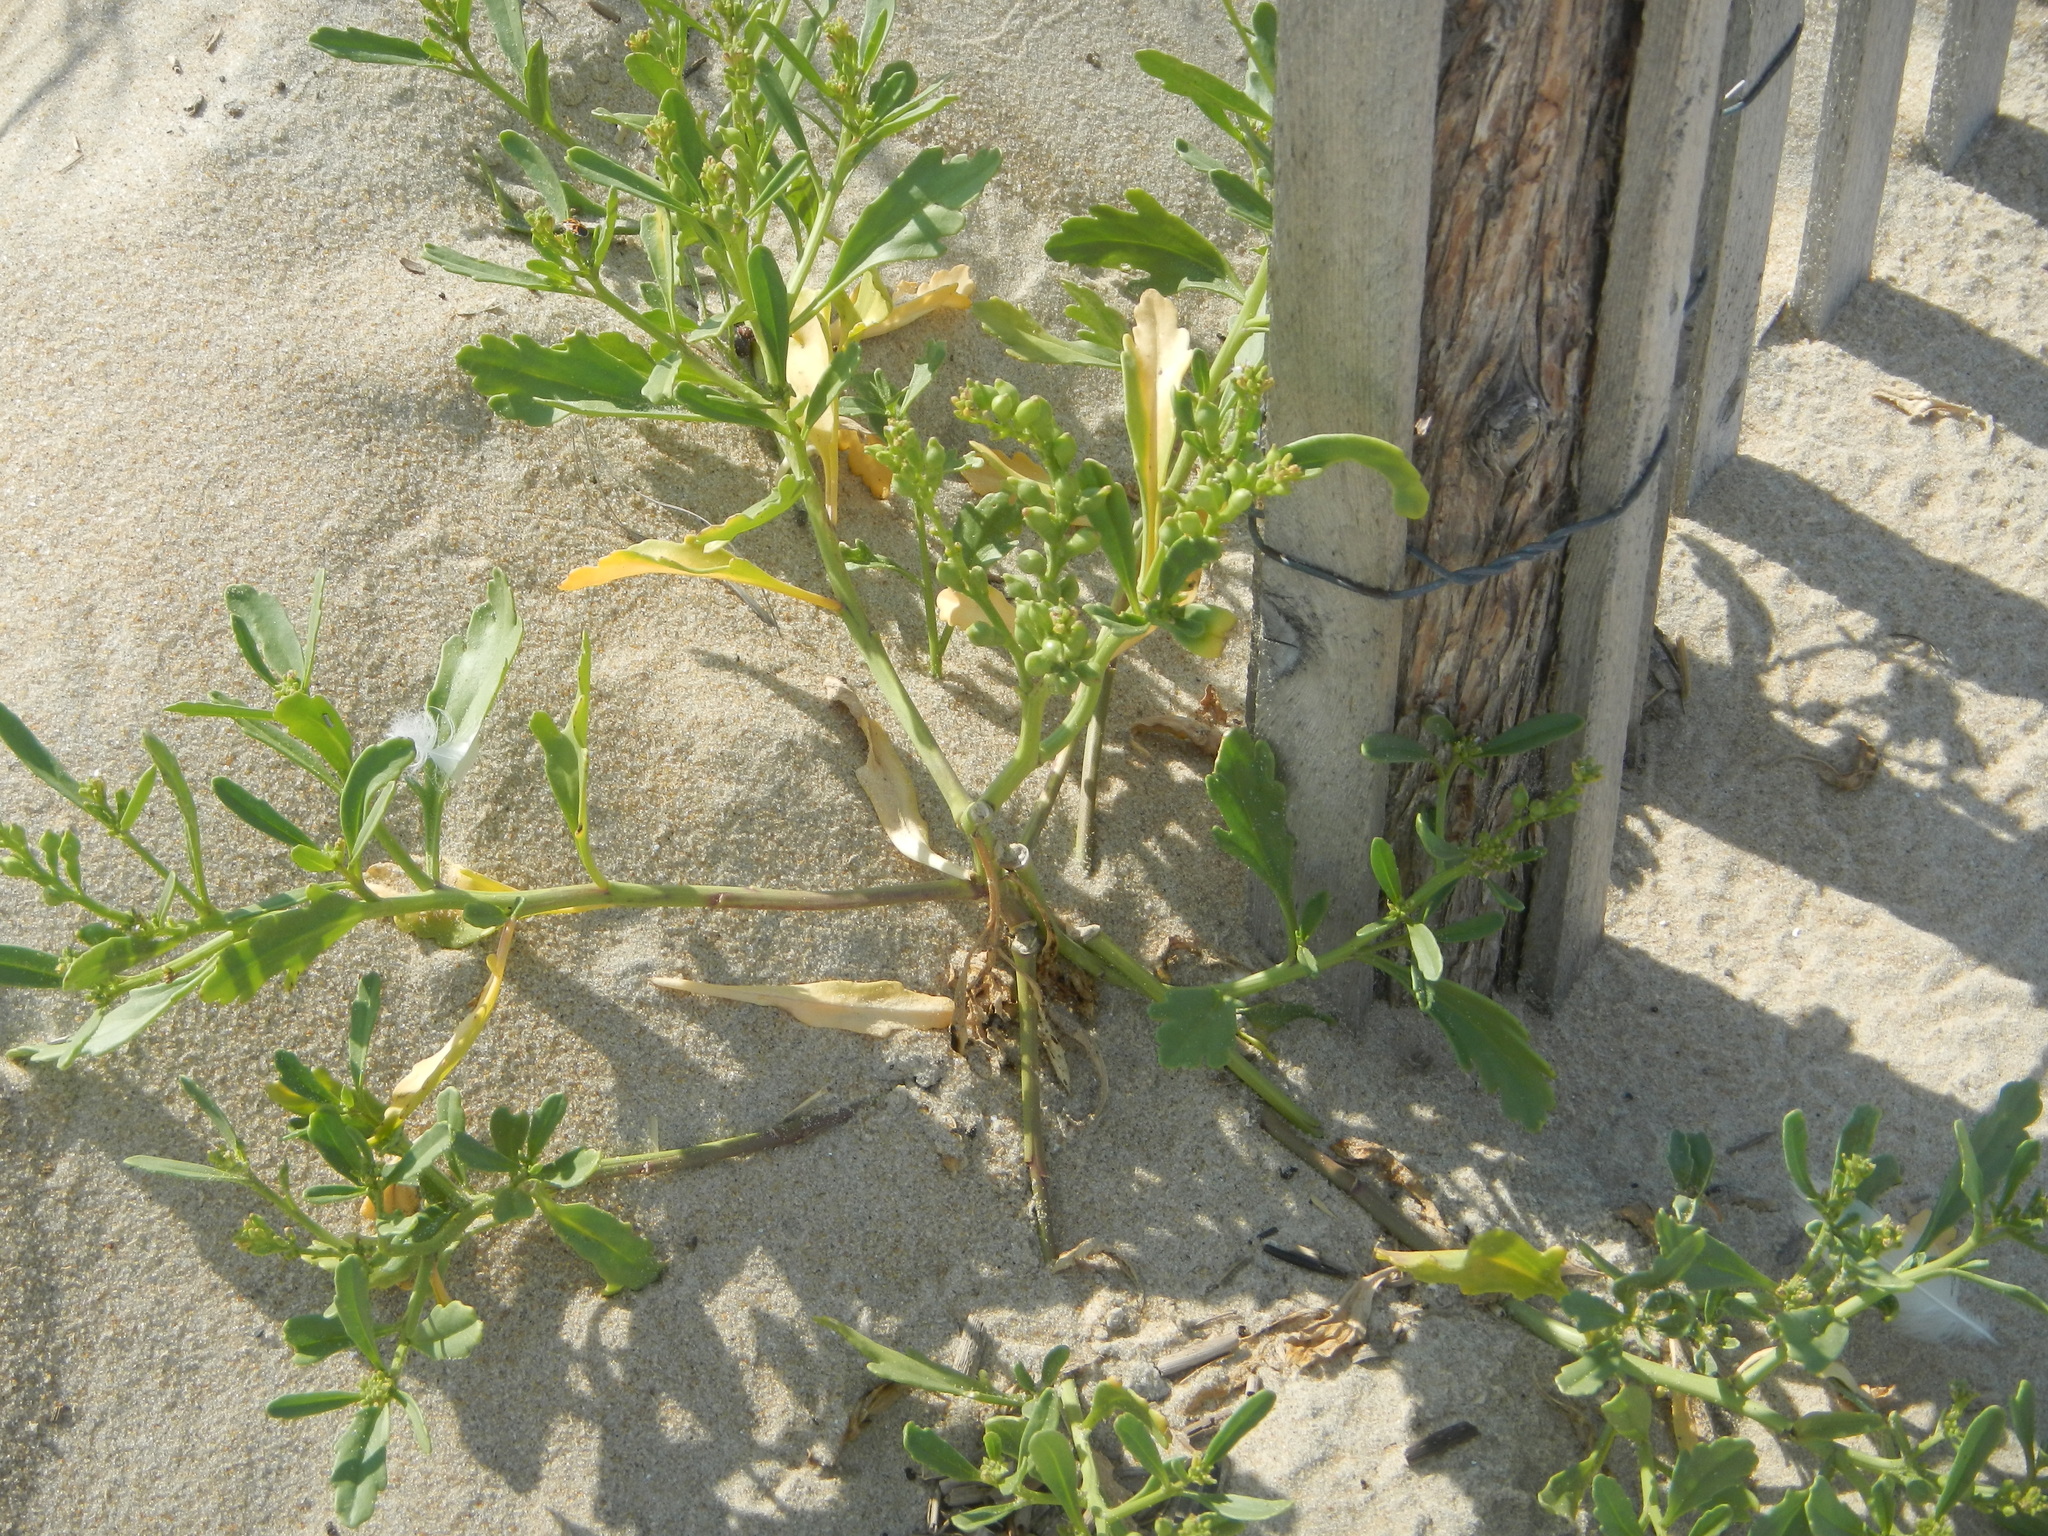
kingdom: Plantae
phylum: Tracheophyta
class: Magnoliopsida
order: Brassicales
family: Brassicaceae
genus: Cakile
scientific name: Cakile edentula
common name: American sea rocket
